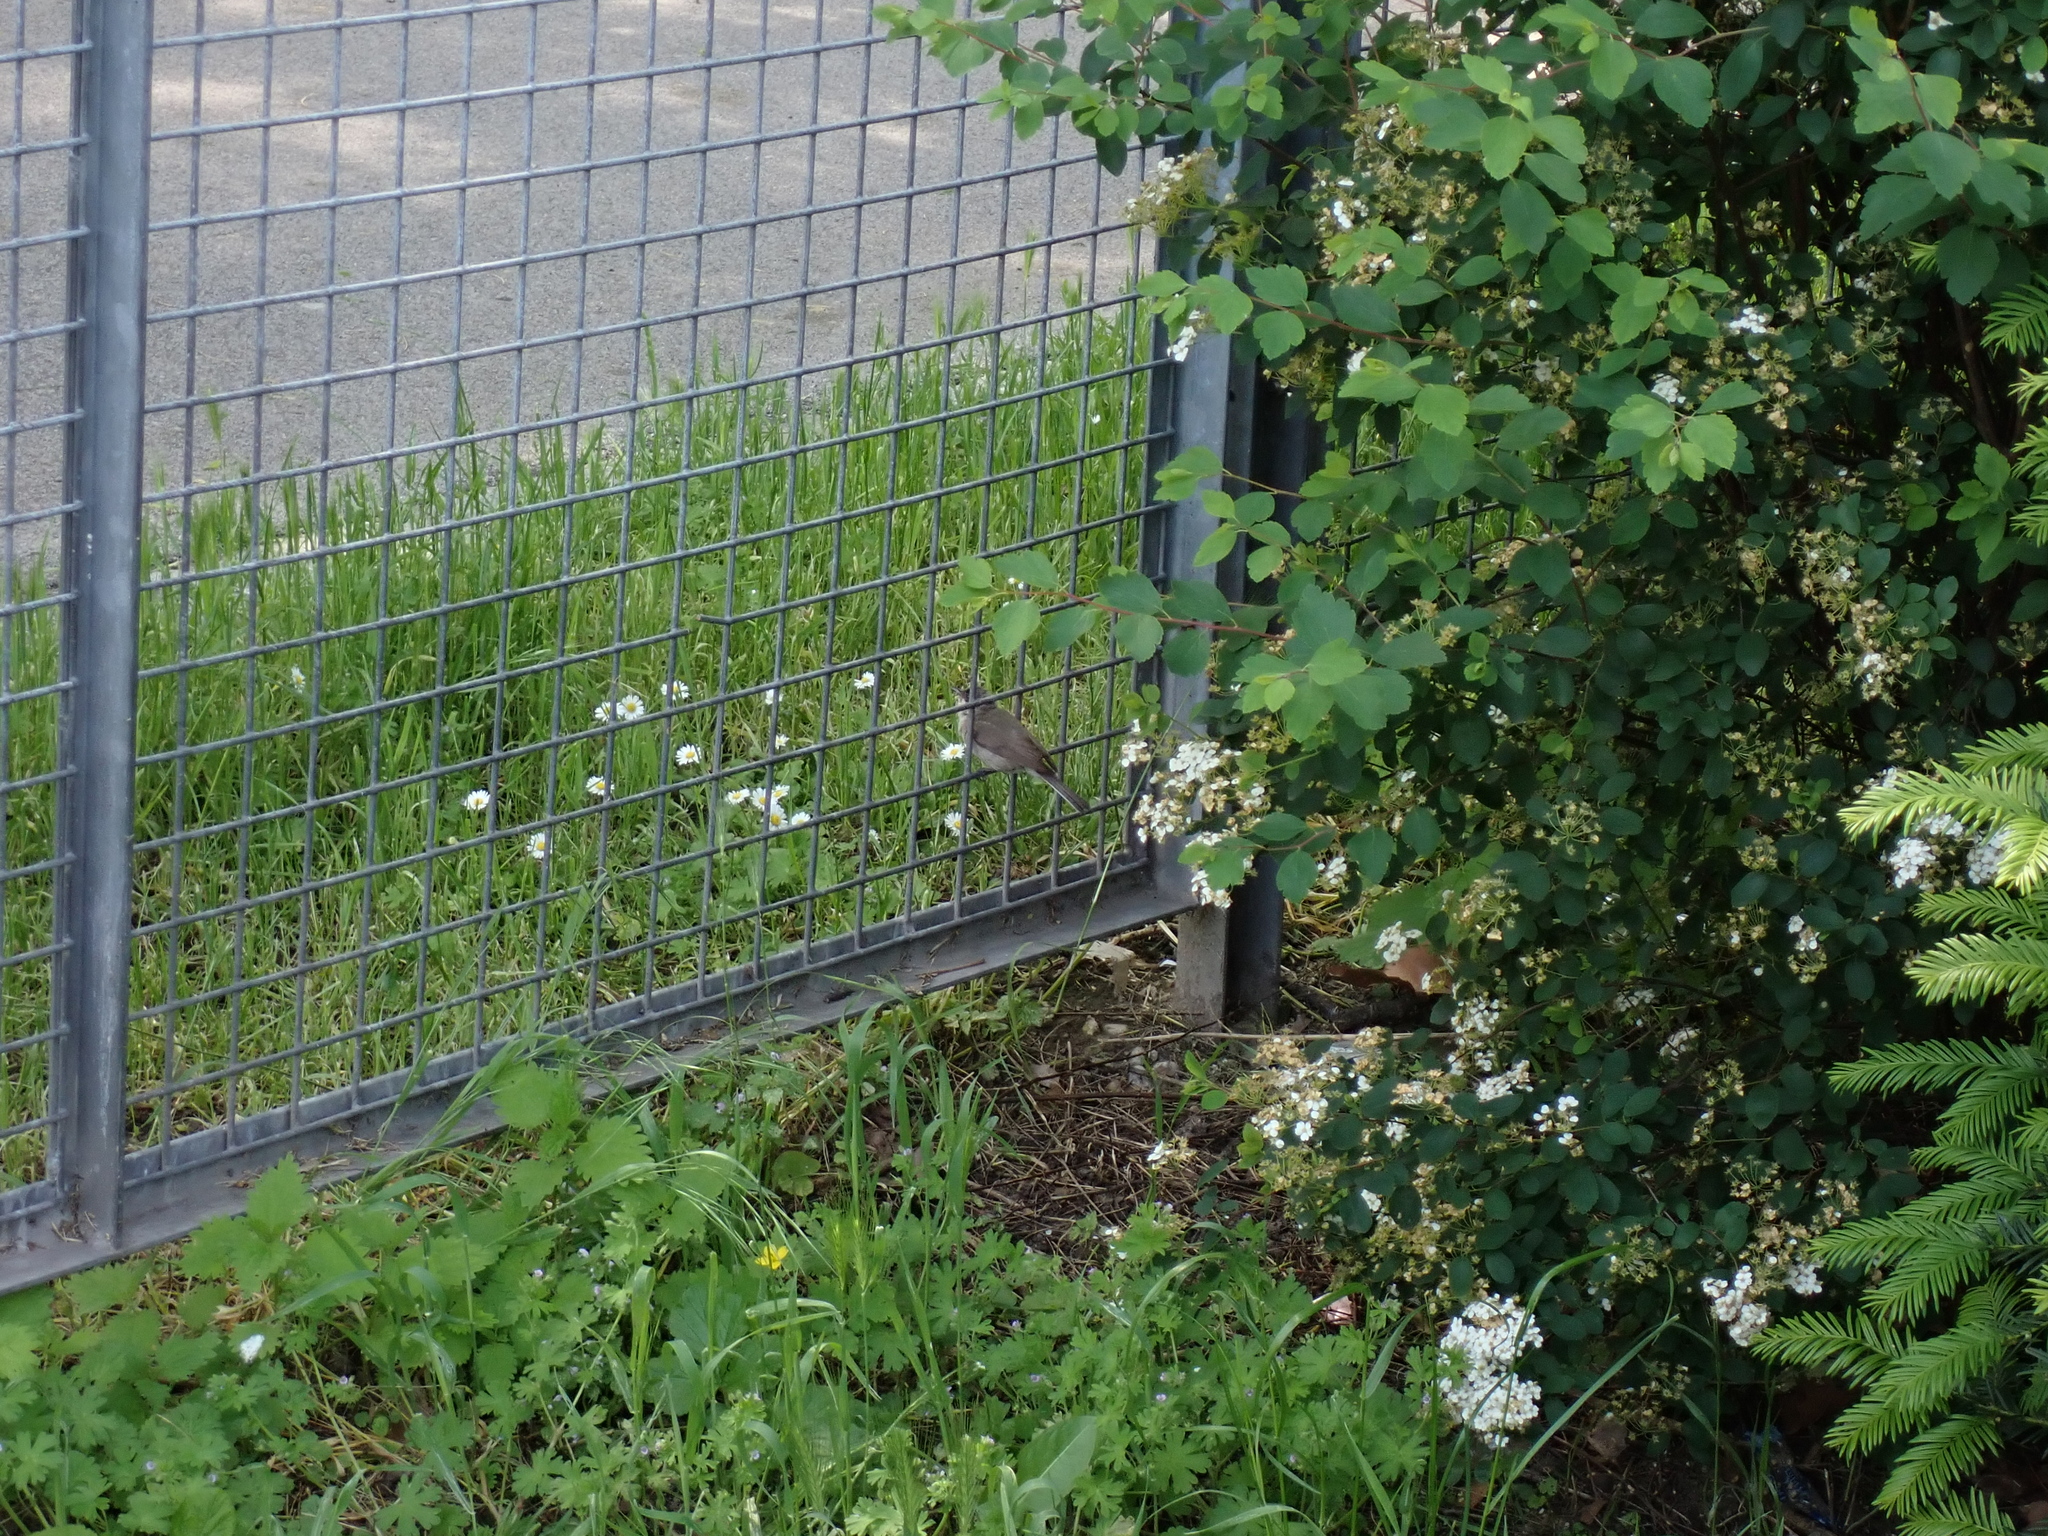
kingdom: Animalia
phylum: Chordata
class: Aves
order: Passeriformes
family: Sylviidae
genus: Sylvia
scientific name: Sylvia curruca
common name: Lesser whitethroat
